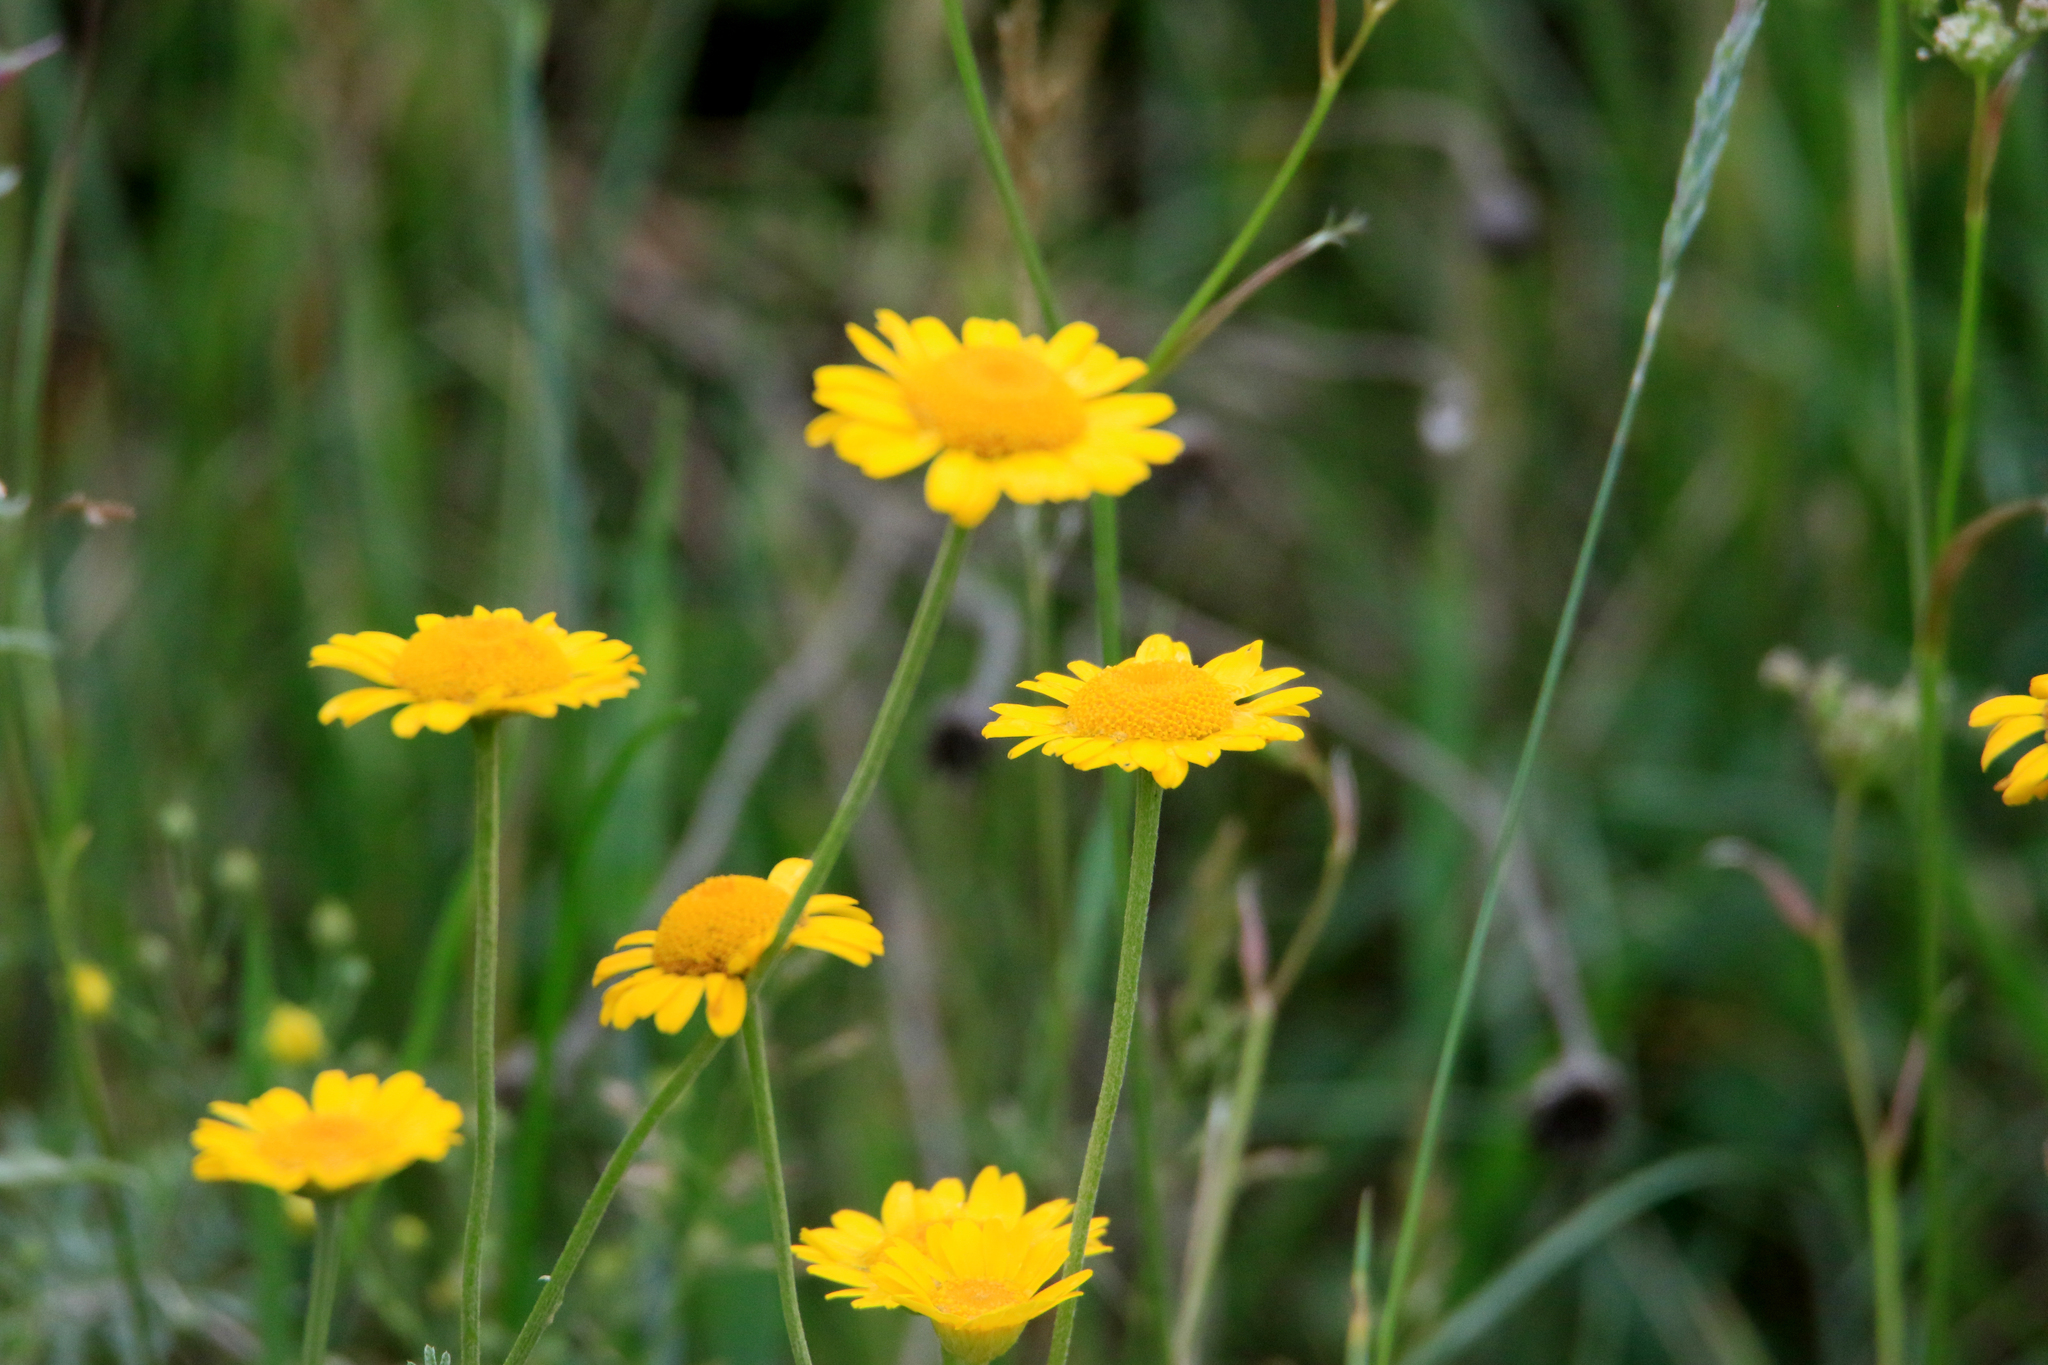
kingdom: Plantae
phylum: Tracheophyta
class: Magnoliopsida
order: Asterales
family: Asteraceae
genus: Cota
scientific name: Cota tinctoria
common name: Golden chamomile
